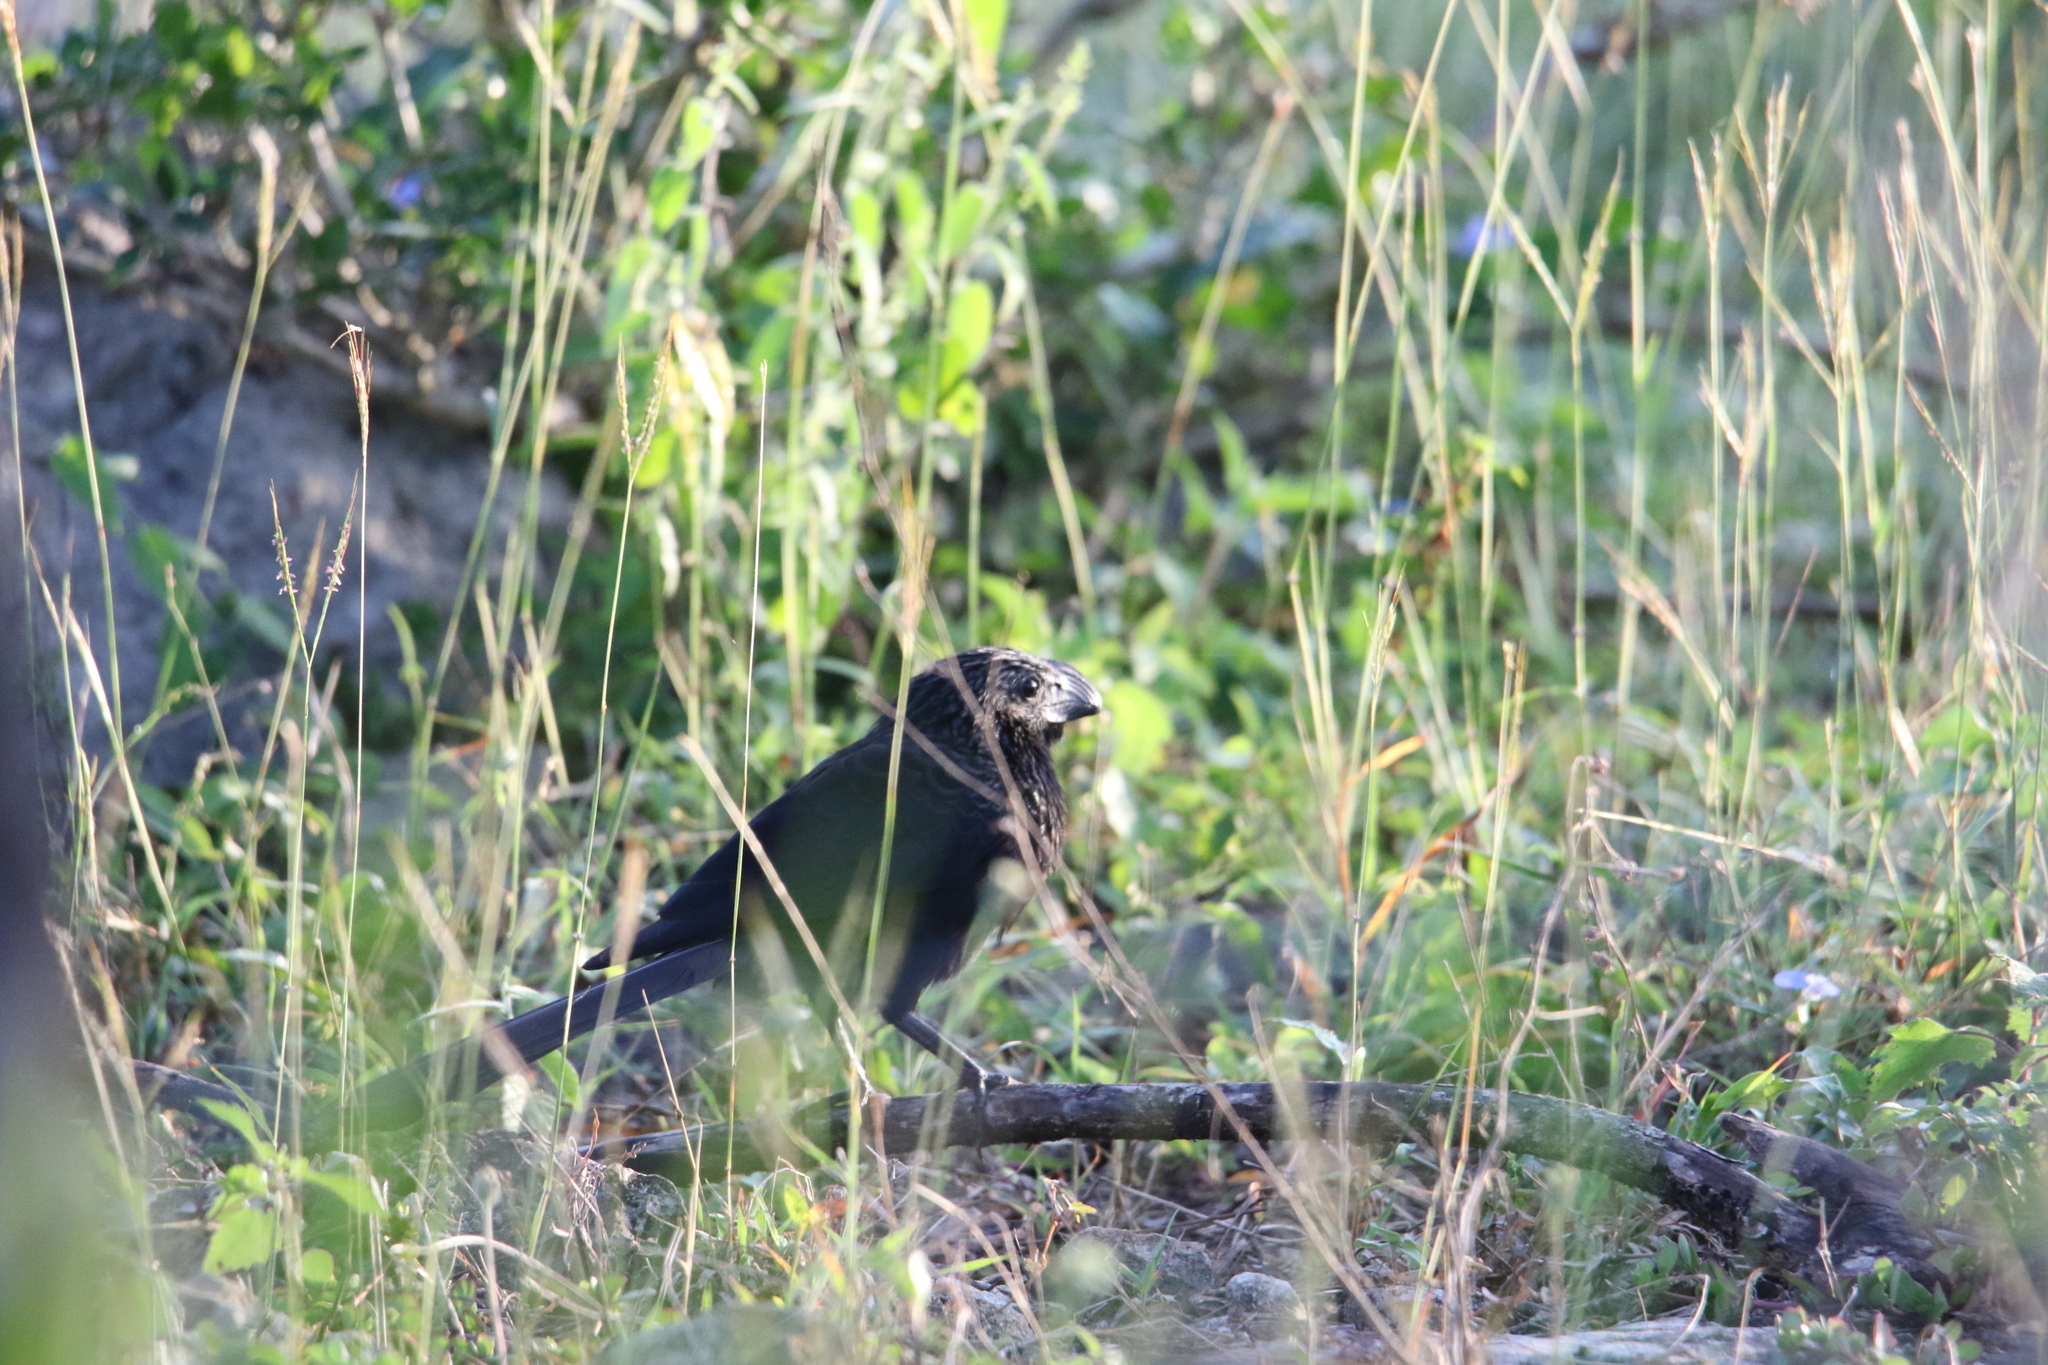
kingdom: Animalia
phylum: Chordata
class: Aves
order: Cuculiformes
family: Cuculidae
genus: Crotophaga
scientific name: Crotophaga sulcirostris
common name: Groove-billed ani
